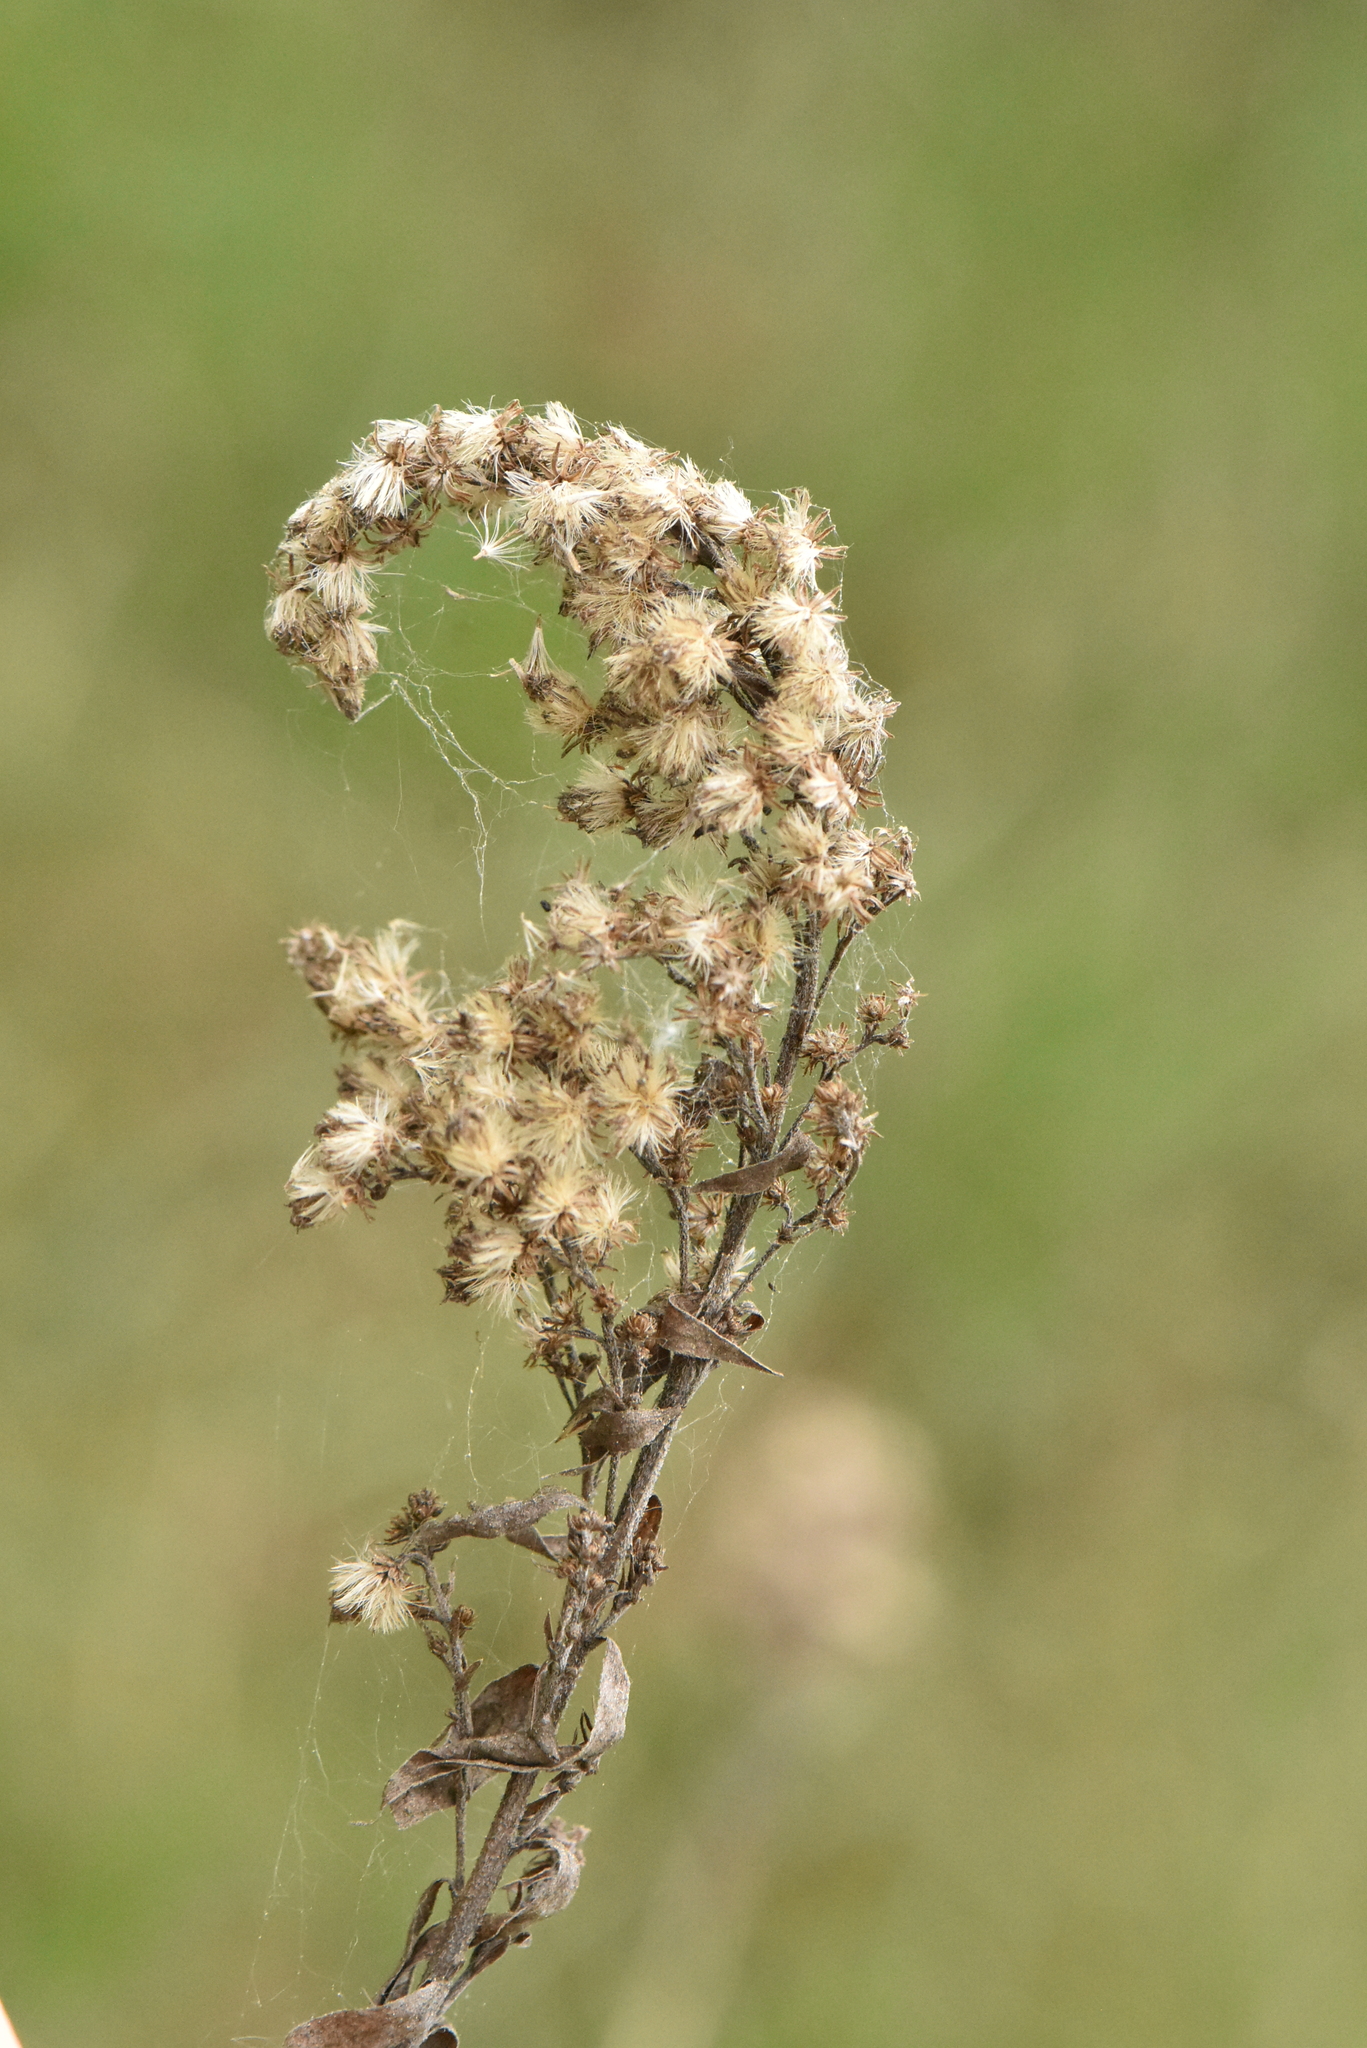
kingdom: Plantae
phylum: Tracheophyta
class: Magnoliopsida
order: Asterales
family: Asteraceae
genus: Solidago
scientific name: Solidago gigantea
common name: Giant goldenrod
